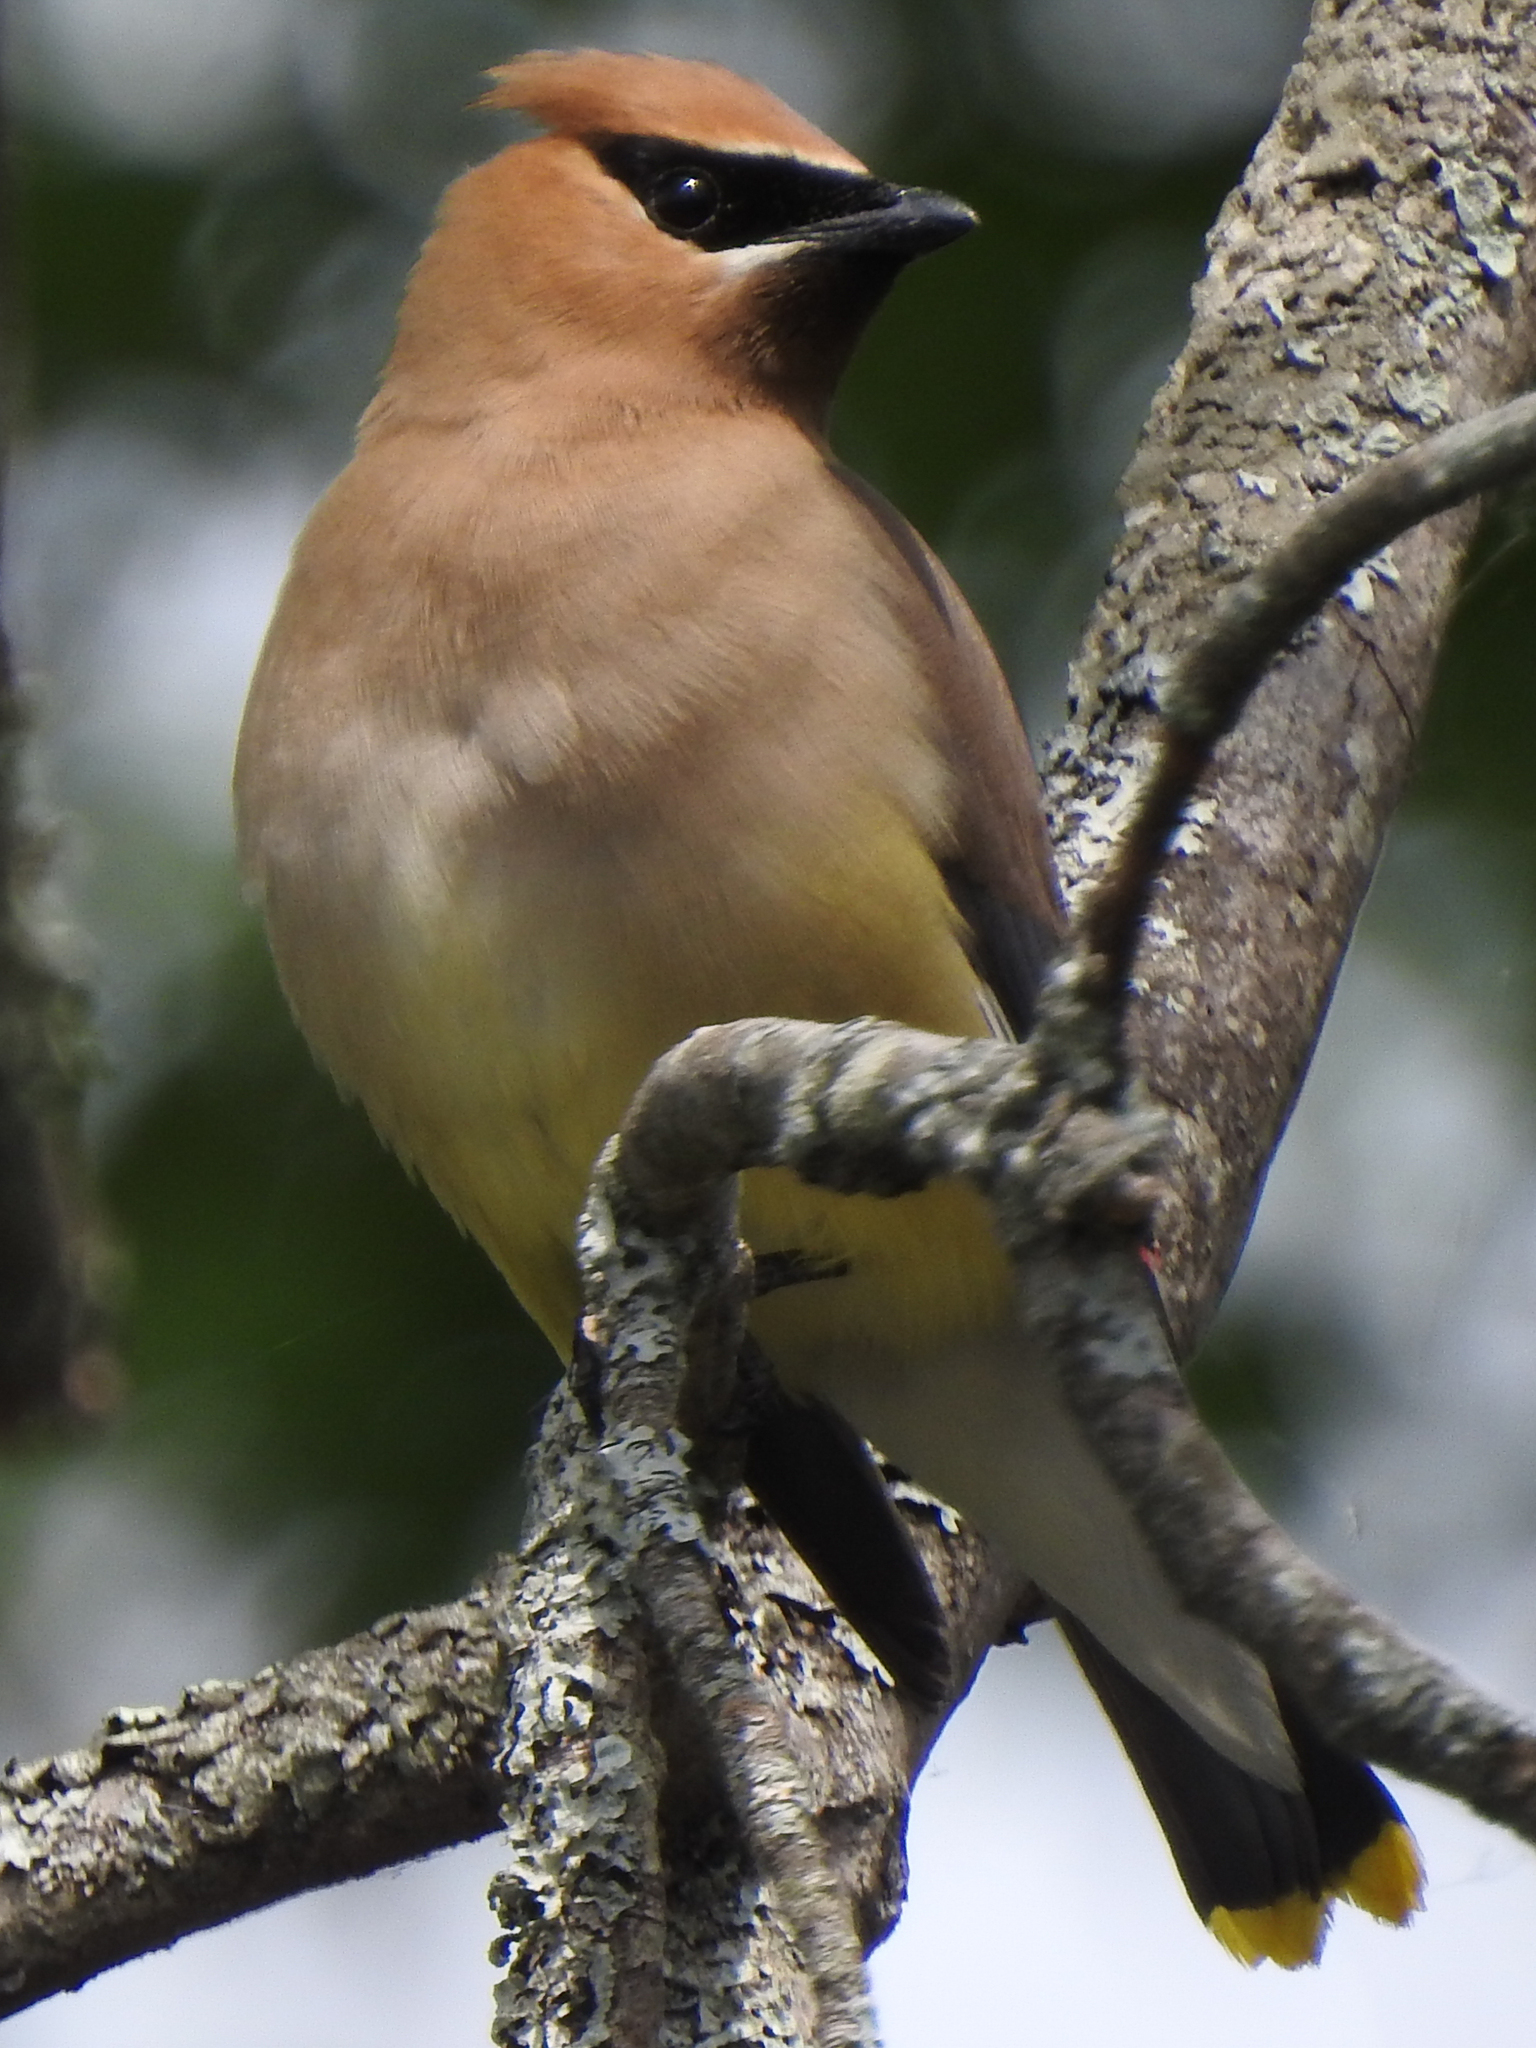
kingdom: Animalia
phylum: Chordata
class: Aves
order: Passeriformes
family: Bombycillidae
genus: Bombycilla
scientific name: Bombycilla cedrorum
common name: Cedar waxwing
